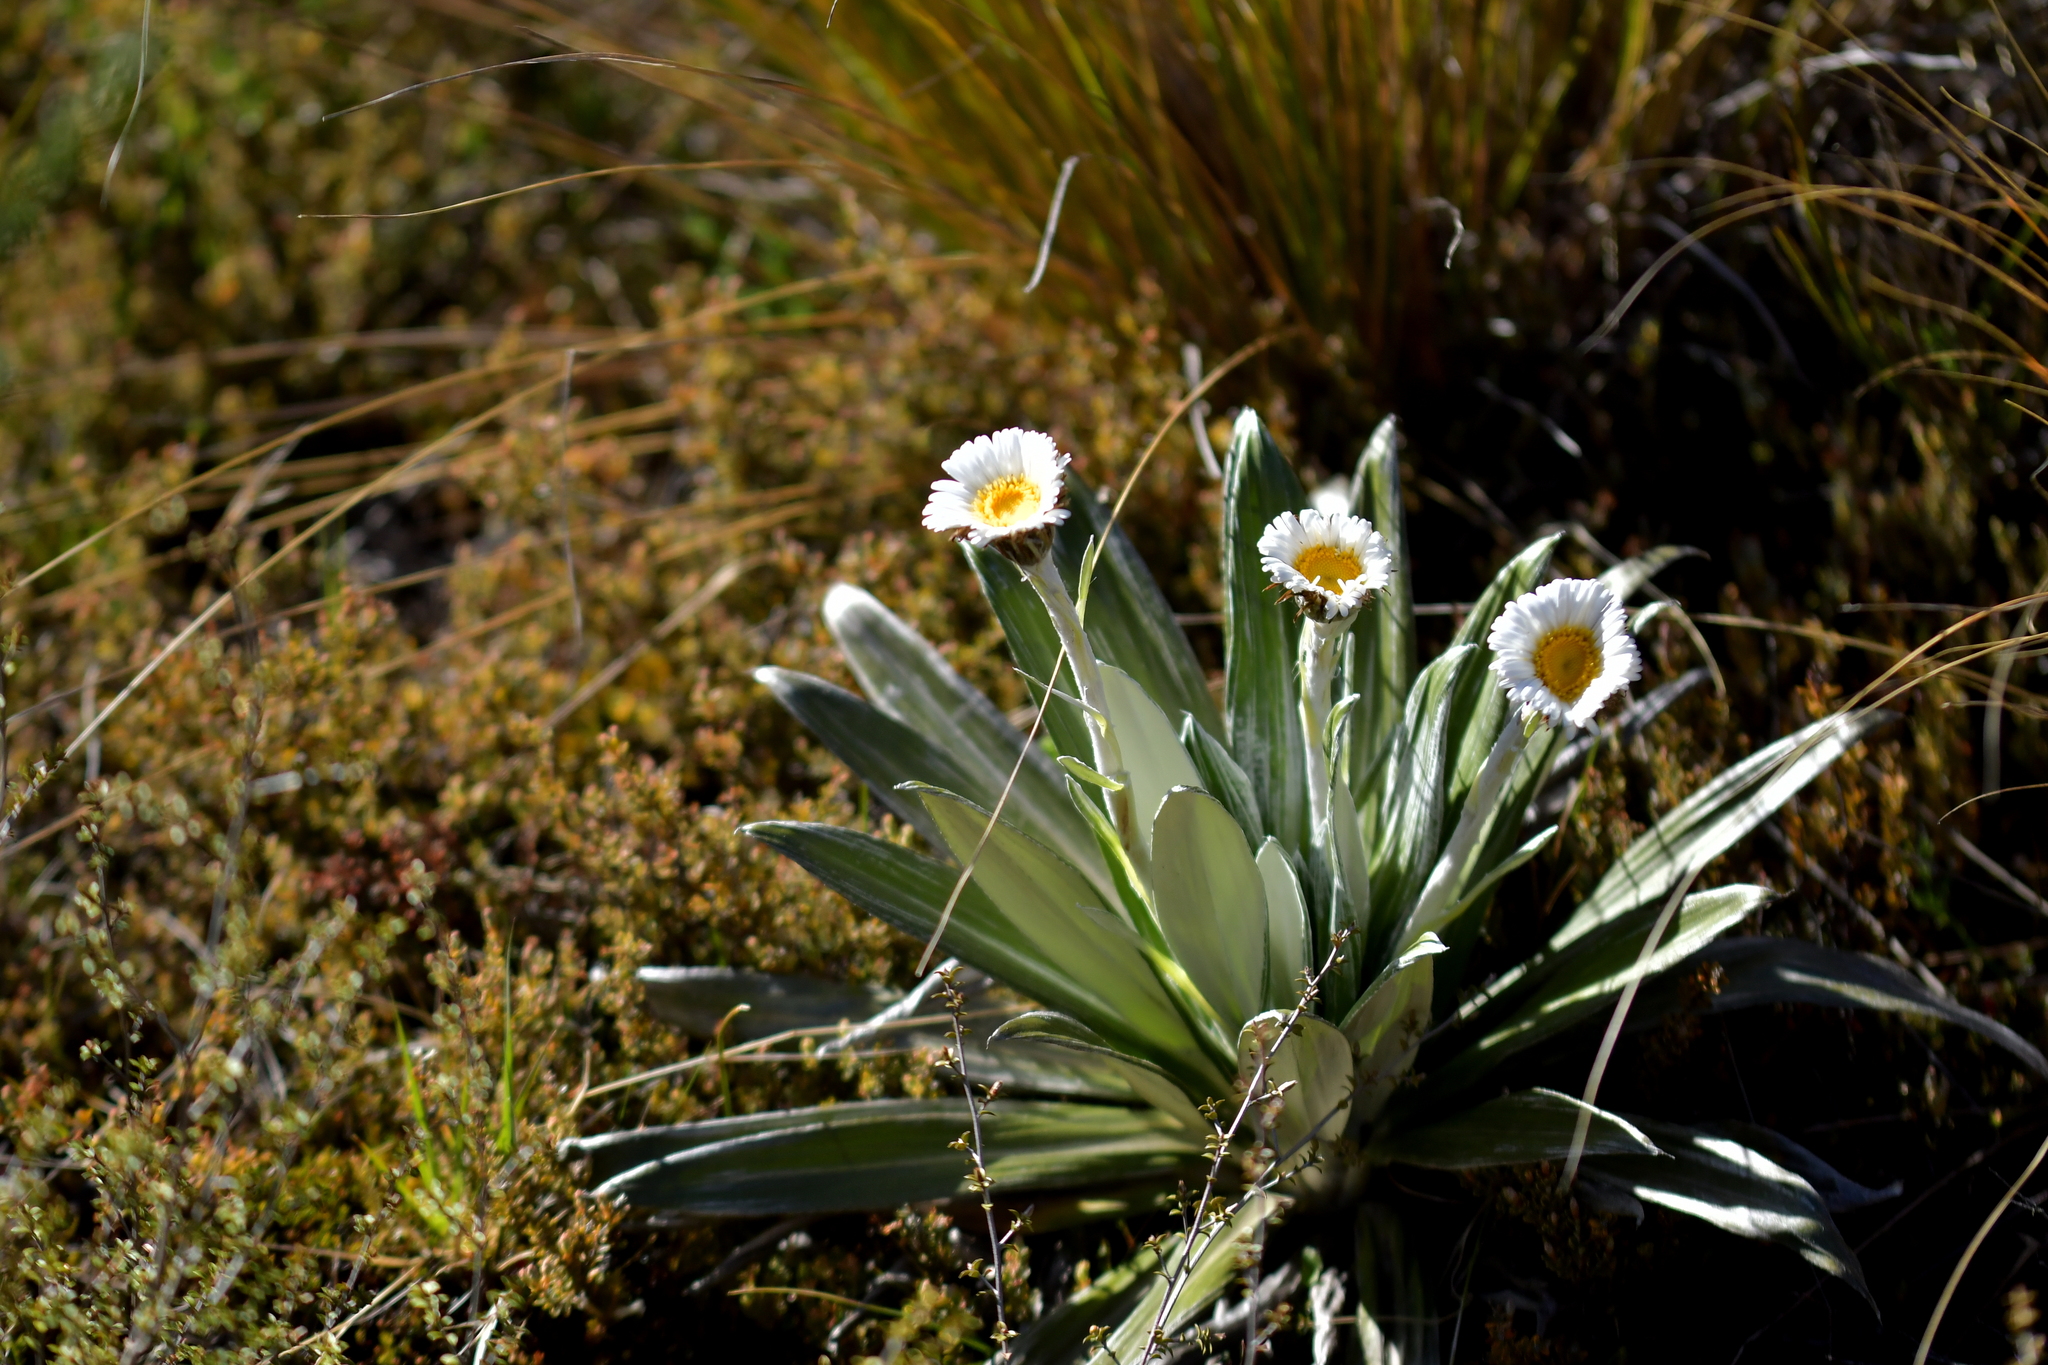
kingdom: Plantae
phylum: Tracheophyta
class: Magnoliopsida
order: Asterales
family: Asteraceae
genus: Celmisia
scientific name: Celmisia semicordata
